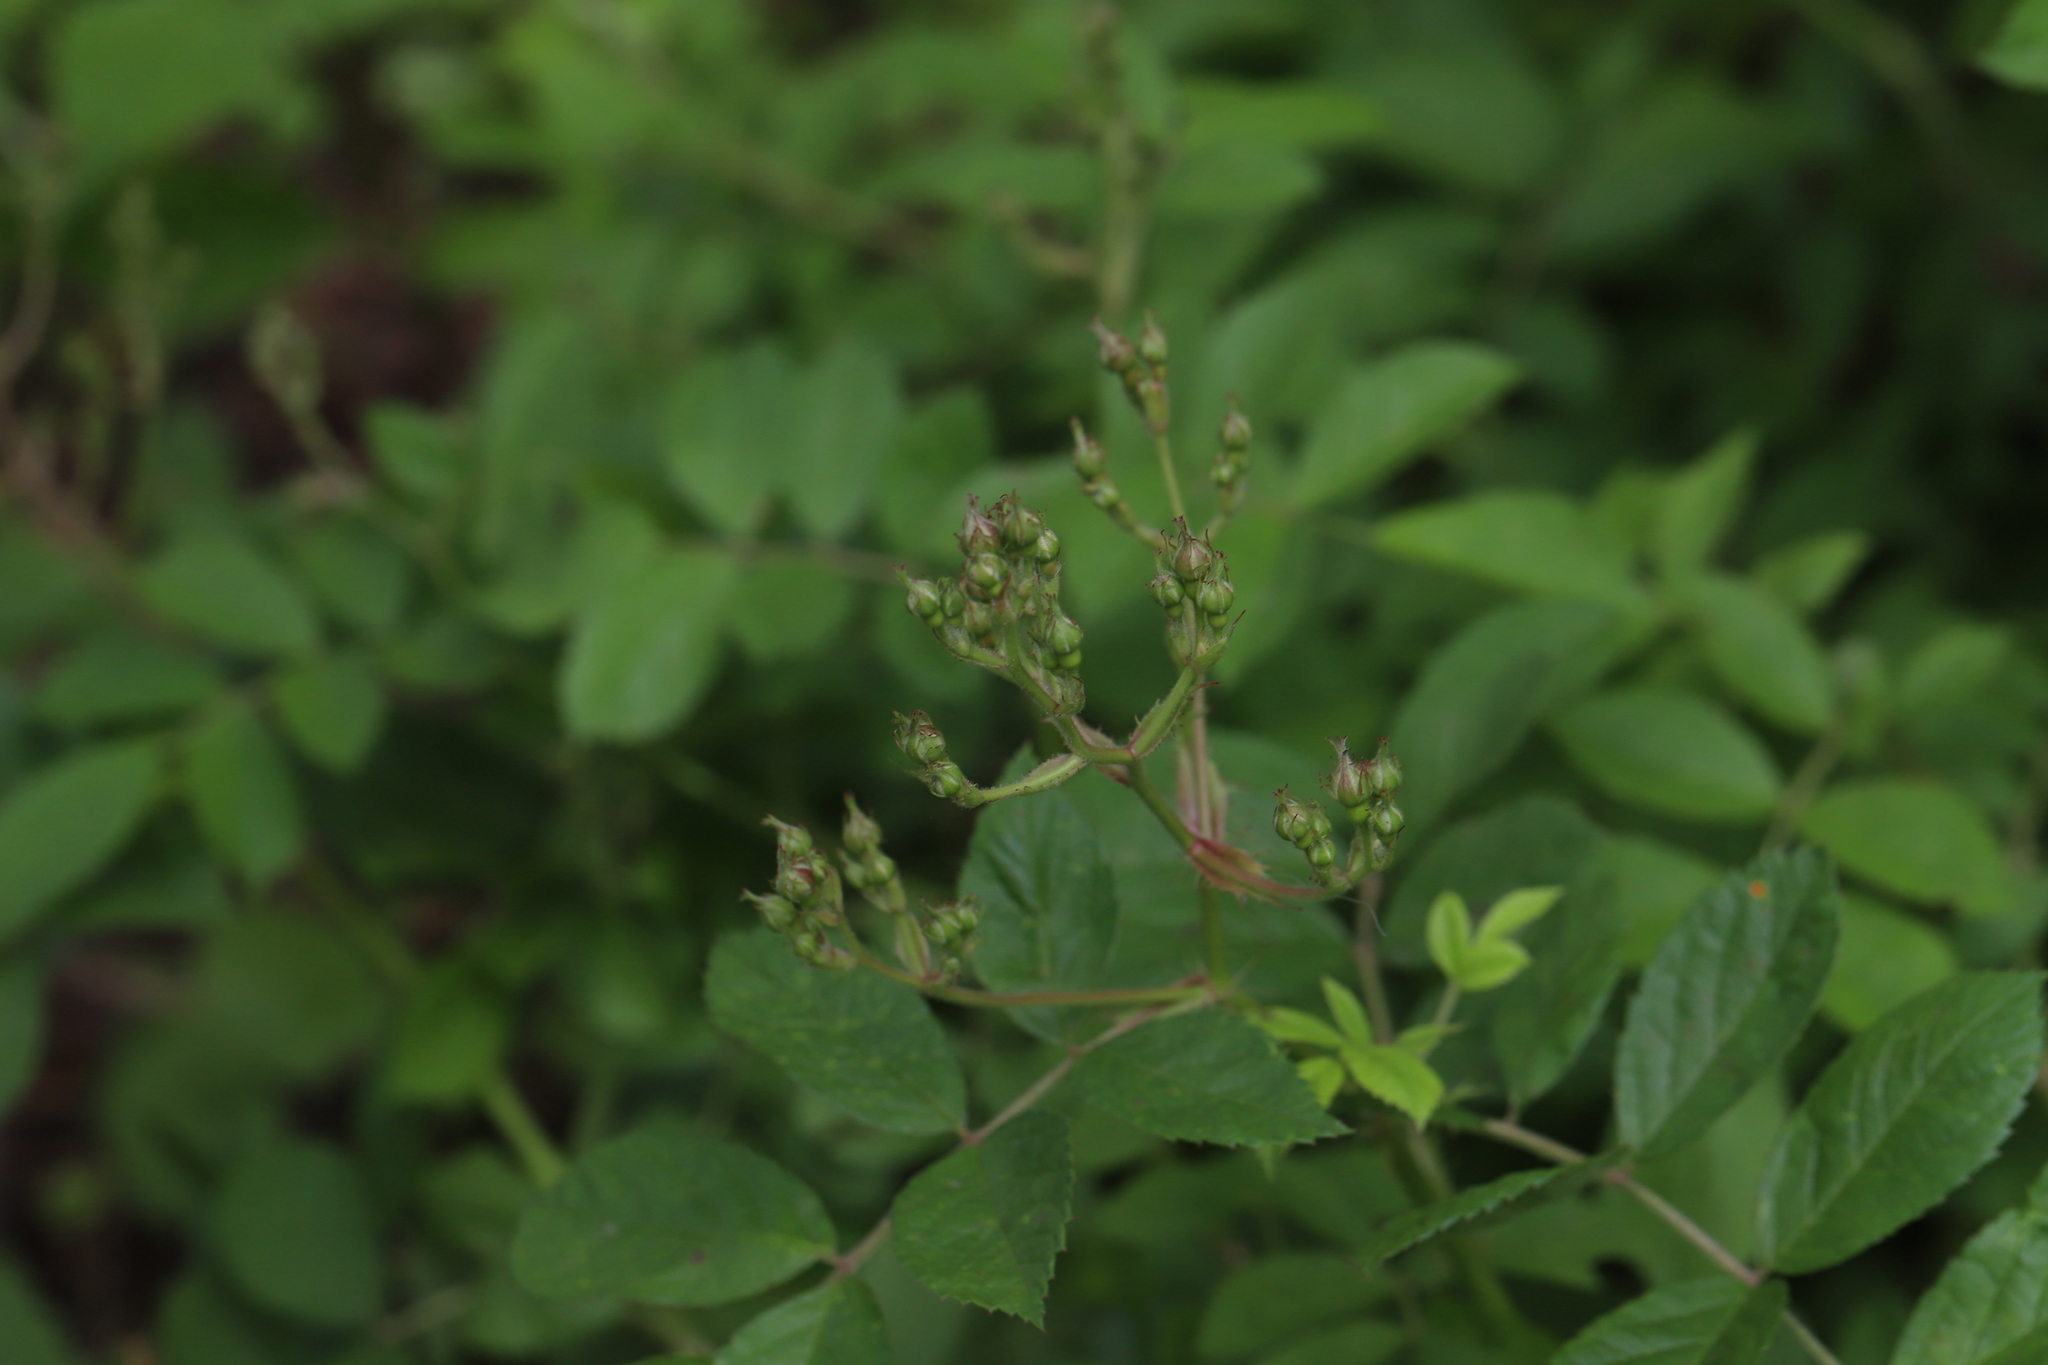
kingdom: Plantae
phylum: Tracheophyta
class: Magnoliopsida
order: Rosales
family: Rosaceae
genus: Rosa
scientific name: Rosa multiflora
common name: Multiflora rose
